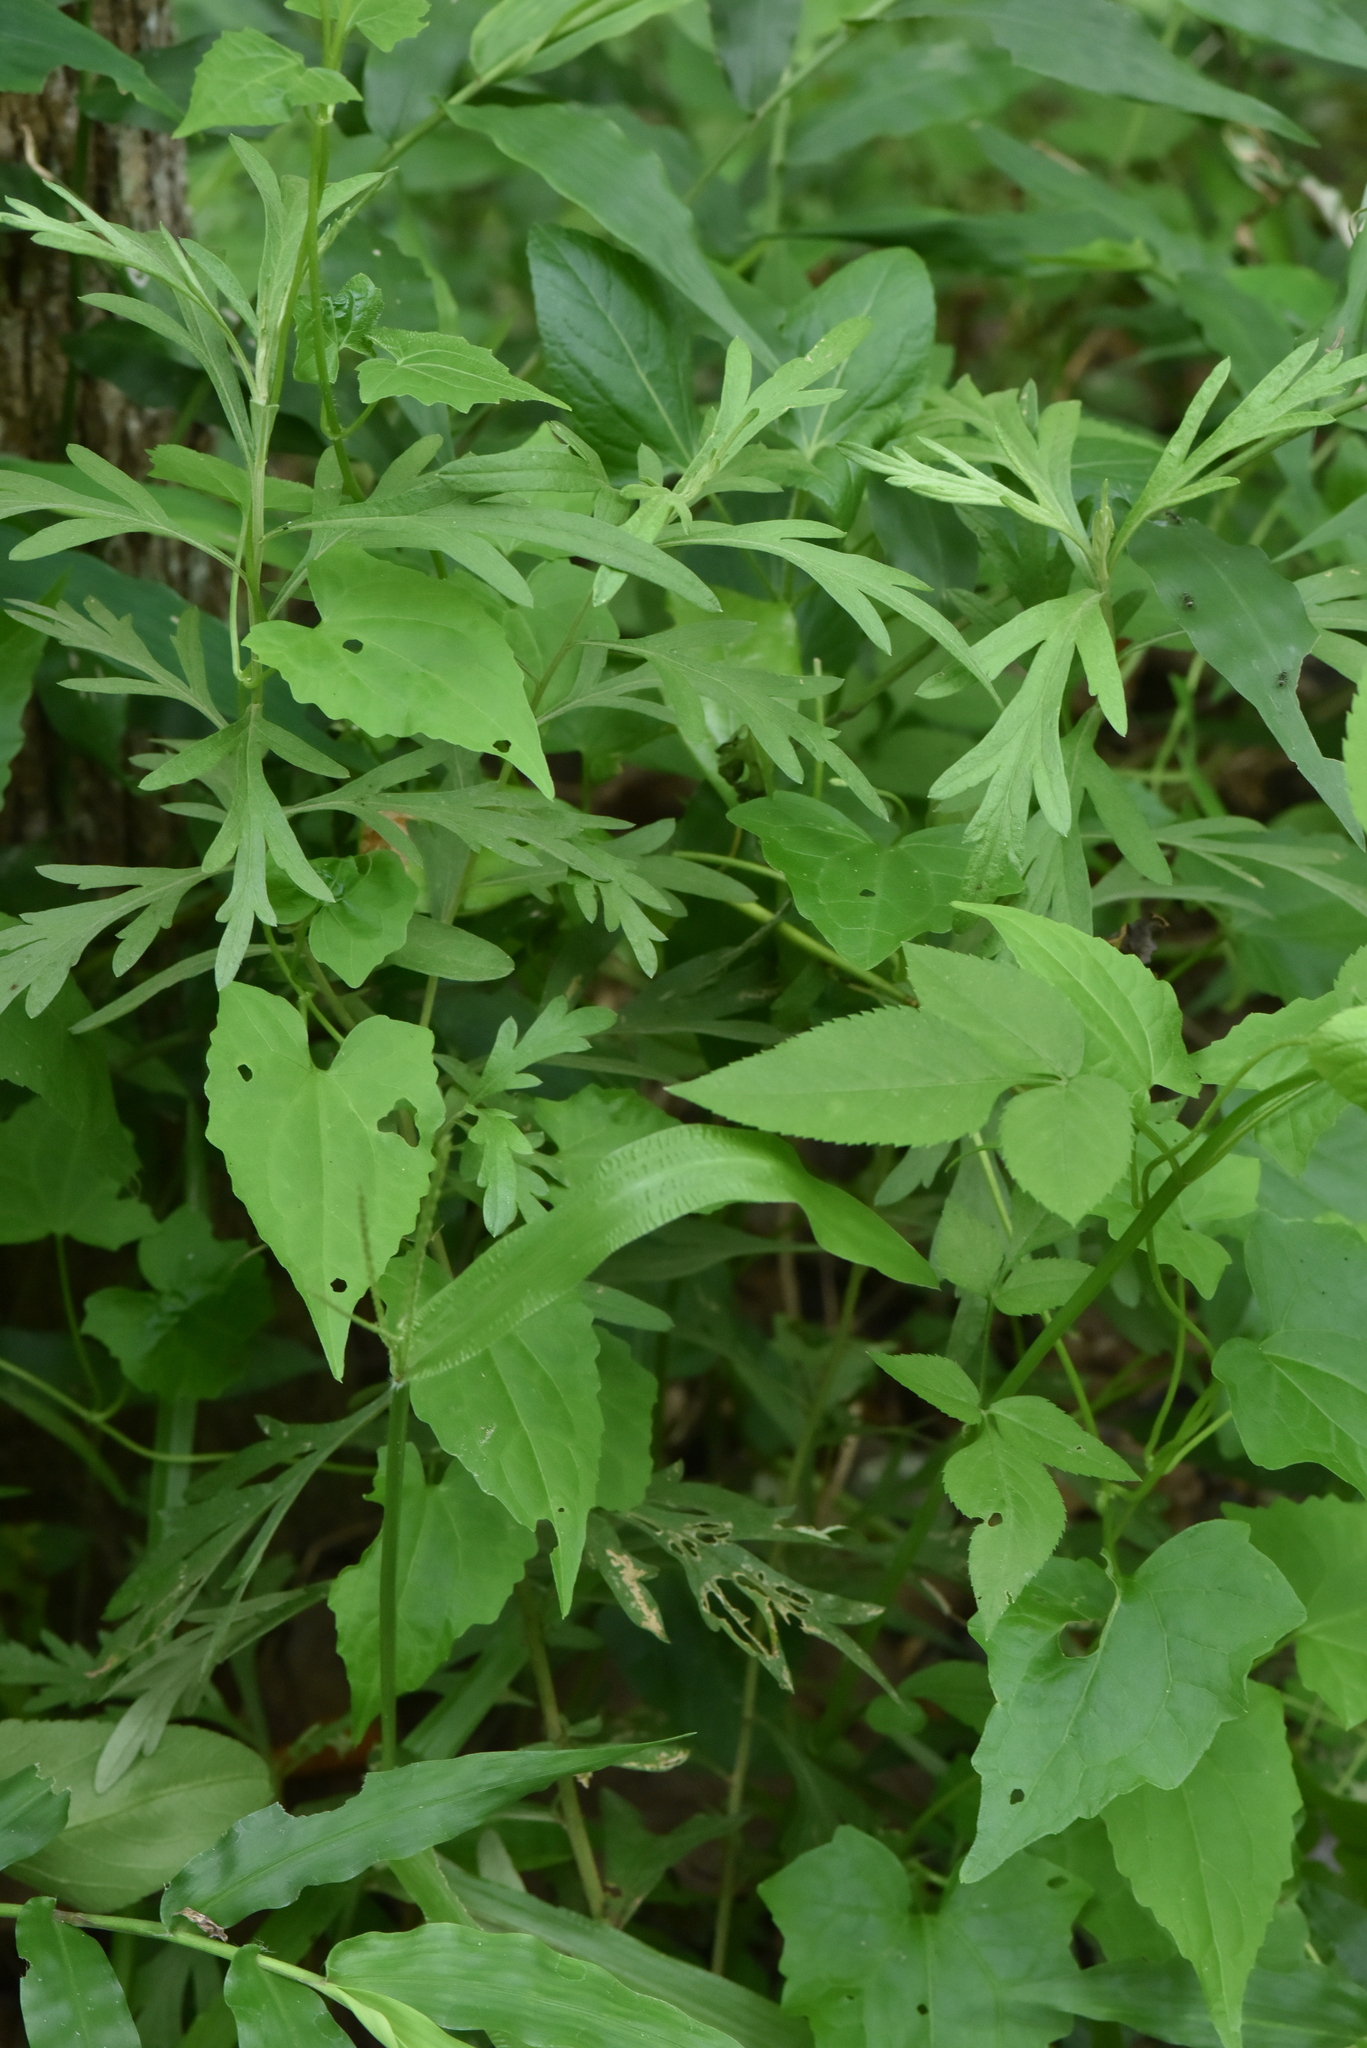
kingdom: Plantae
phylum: Tracheophyta
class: Magnoliopsida
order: Asterales
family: Asteraceae
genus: Artemisia
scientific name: Artemisia indica
